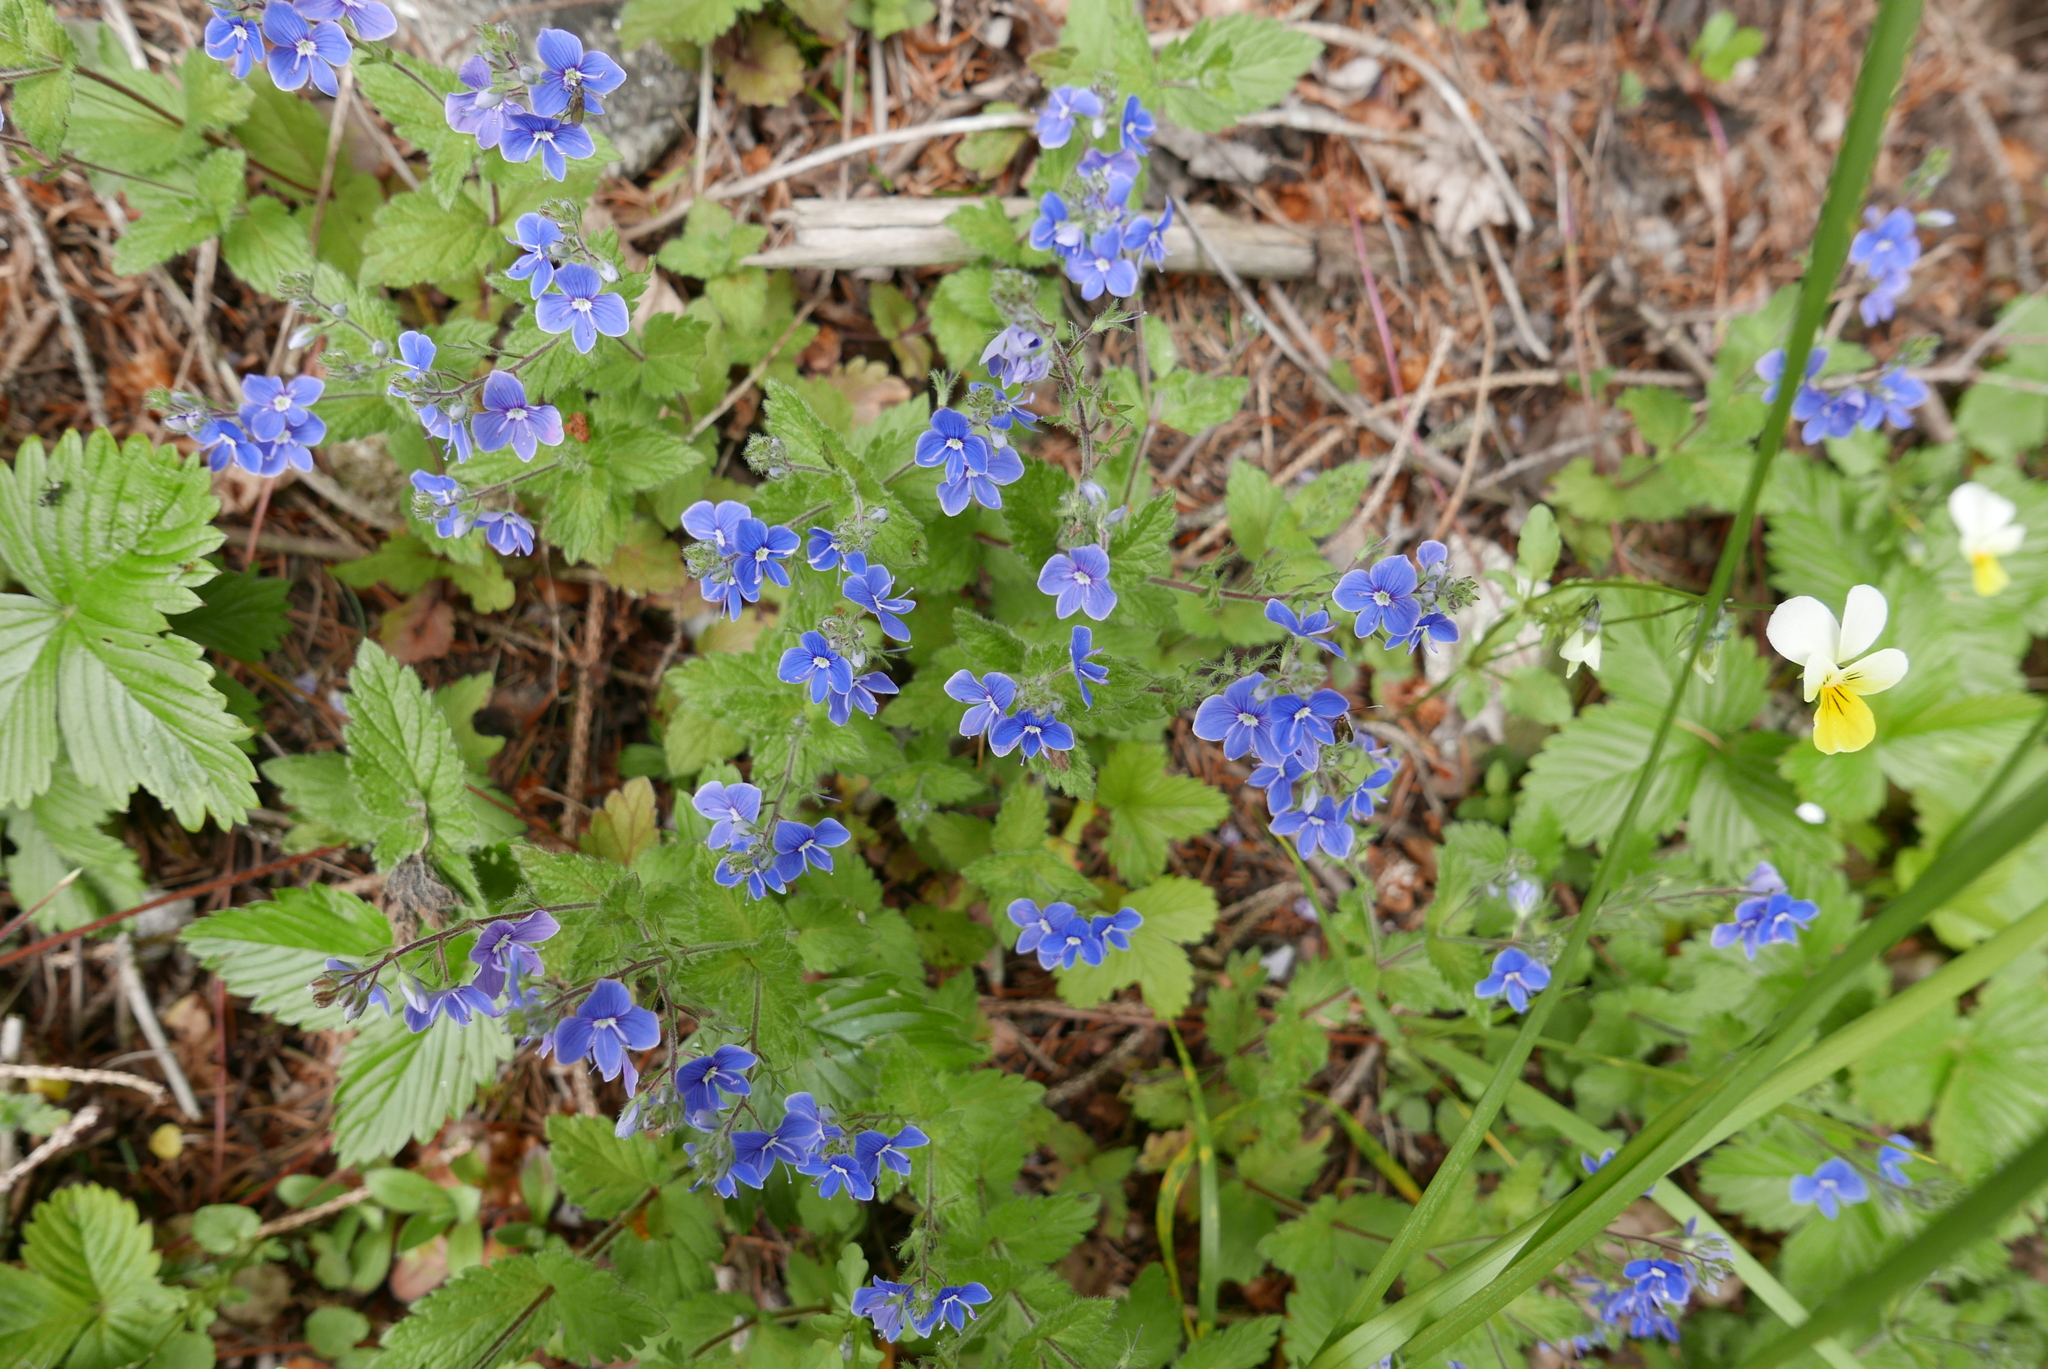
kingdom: Plantae
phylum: Tracheophyta
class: Magnoliopsida
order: Lamiales
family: Plantaginaceae
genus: Veronica
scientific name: Veronica chamaedrys
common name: Germander speedwell
